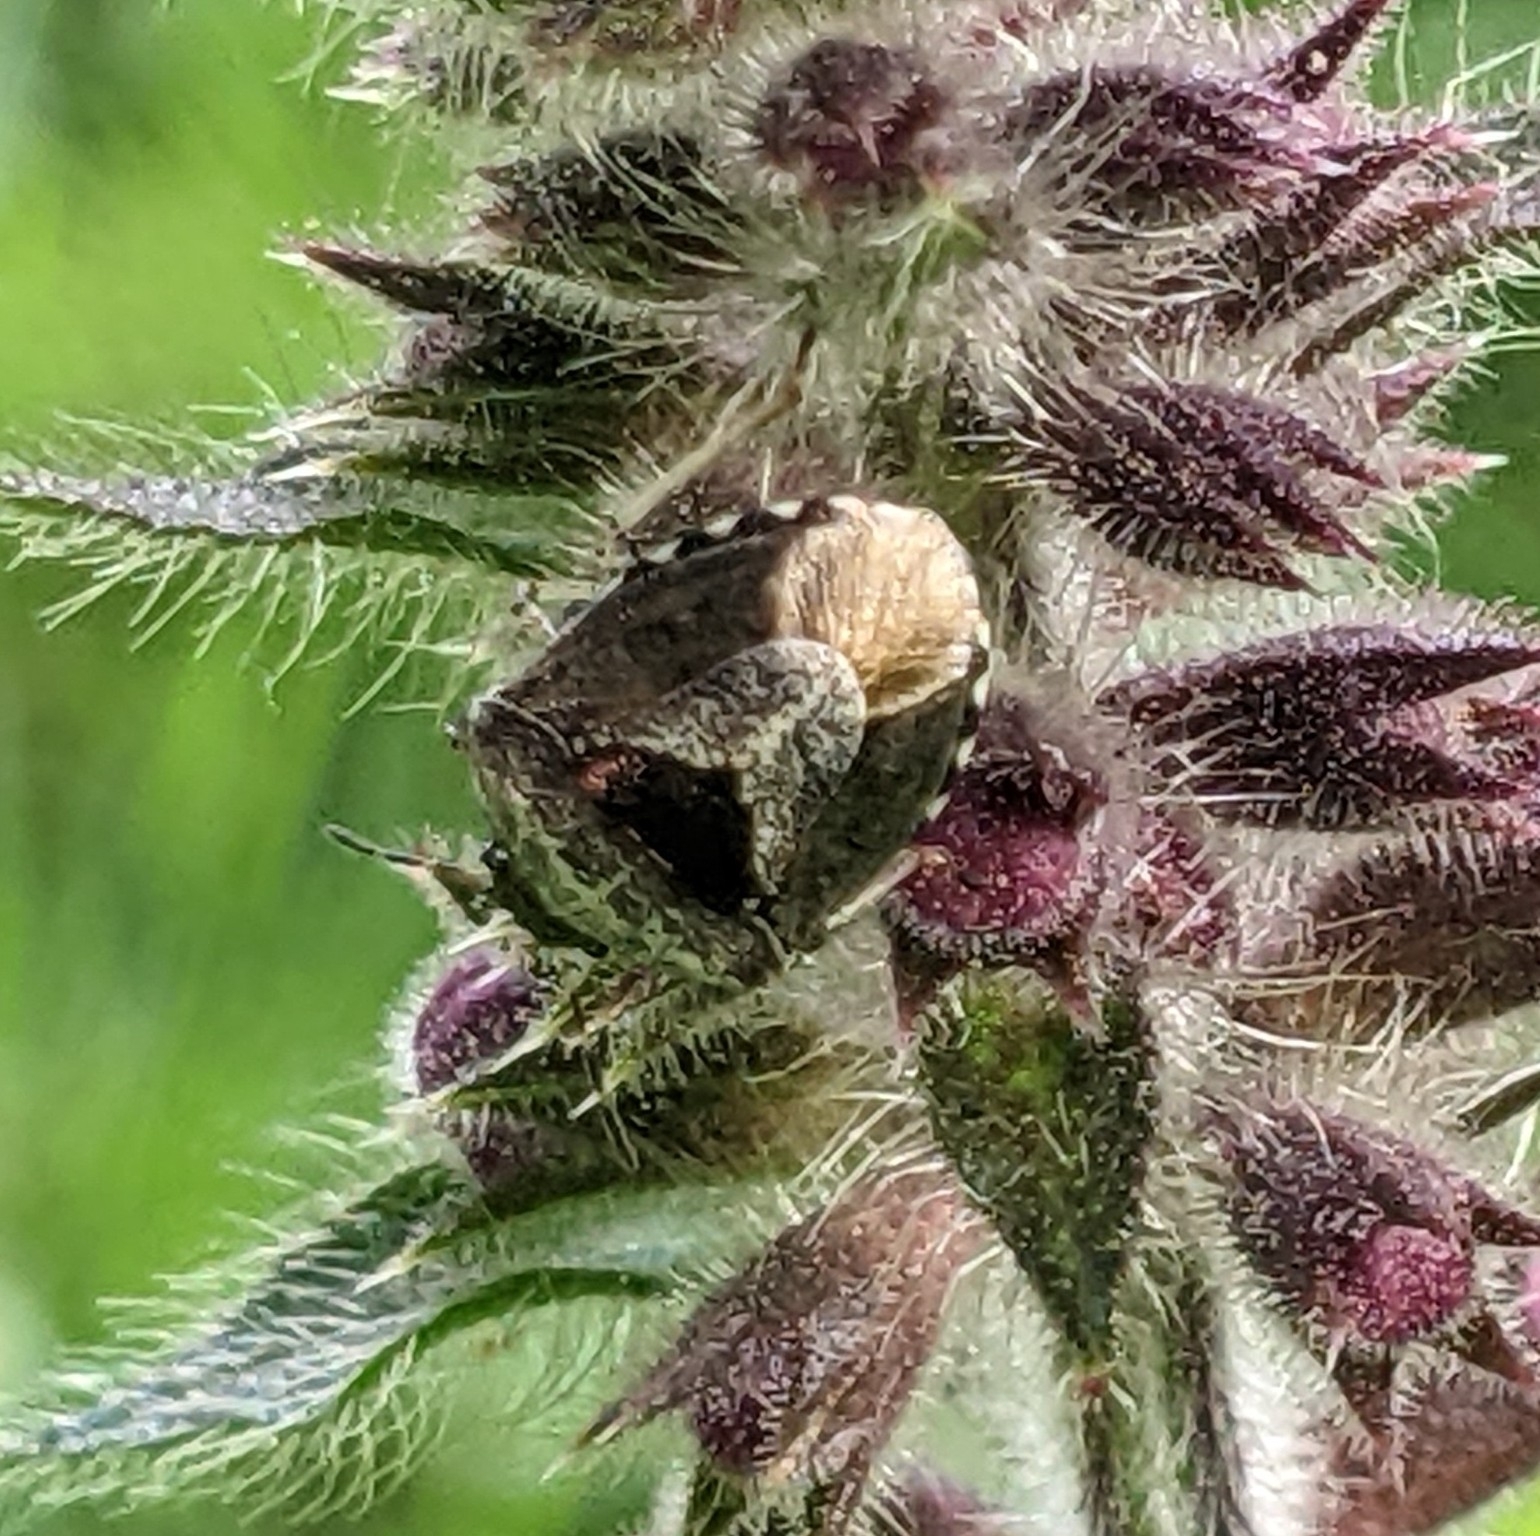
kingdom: Animalia
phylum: Arthropoda
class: Insecta
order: Hemiptera
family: Pentatomidae
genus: Eysarcoris
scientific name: Eysarcoris venustissimus
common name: Woundwort shieldbug
